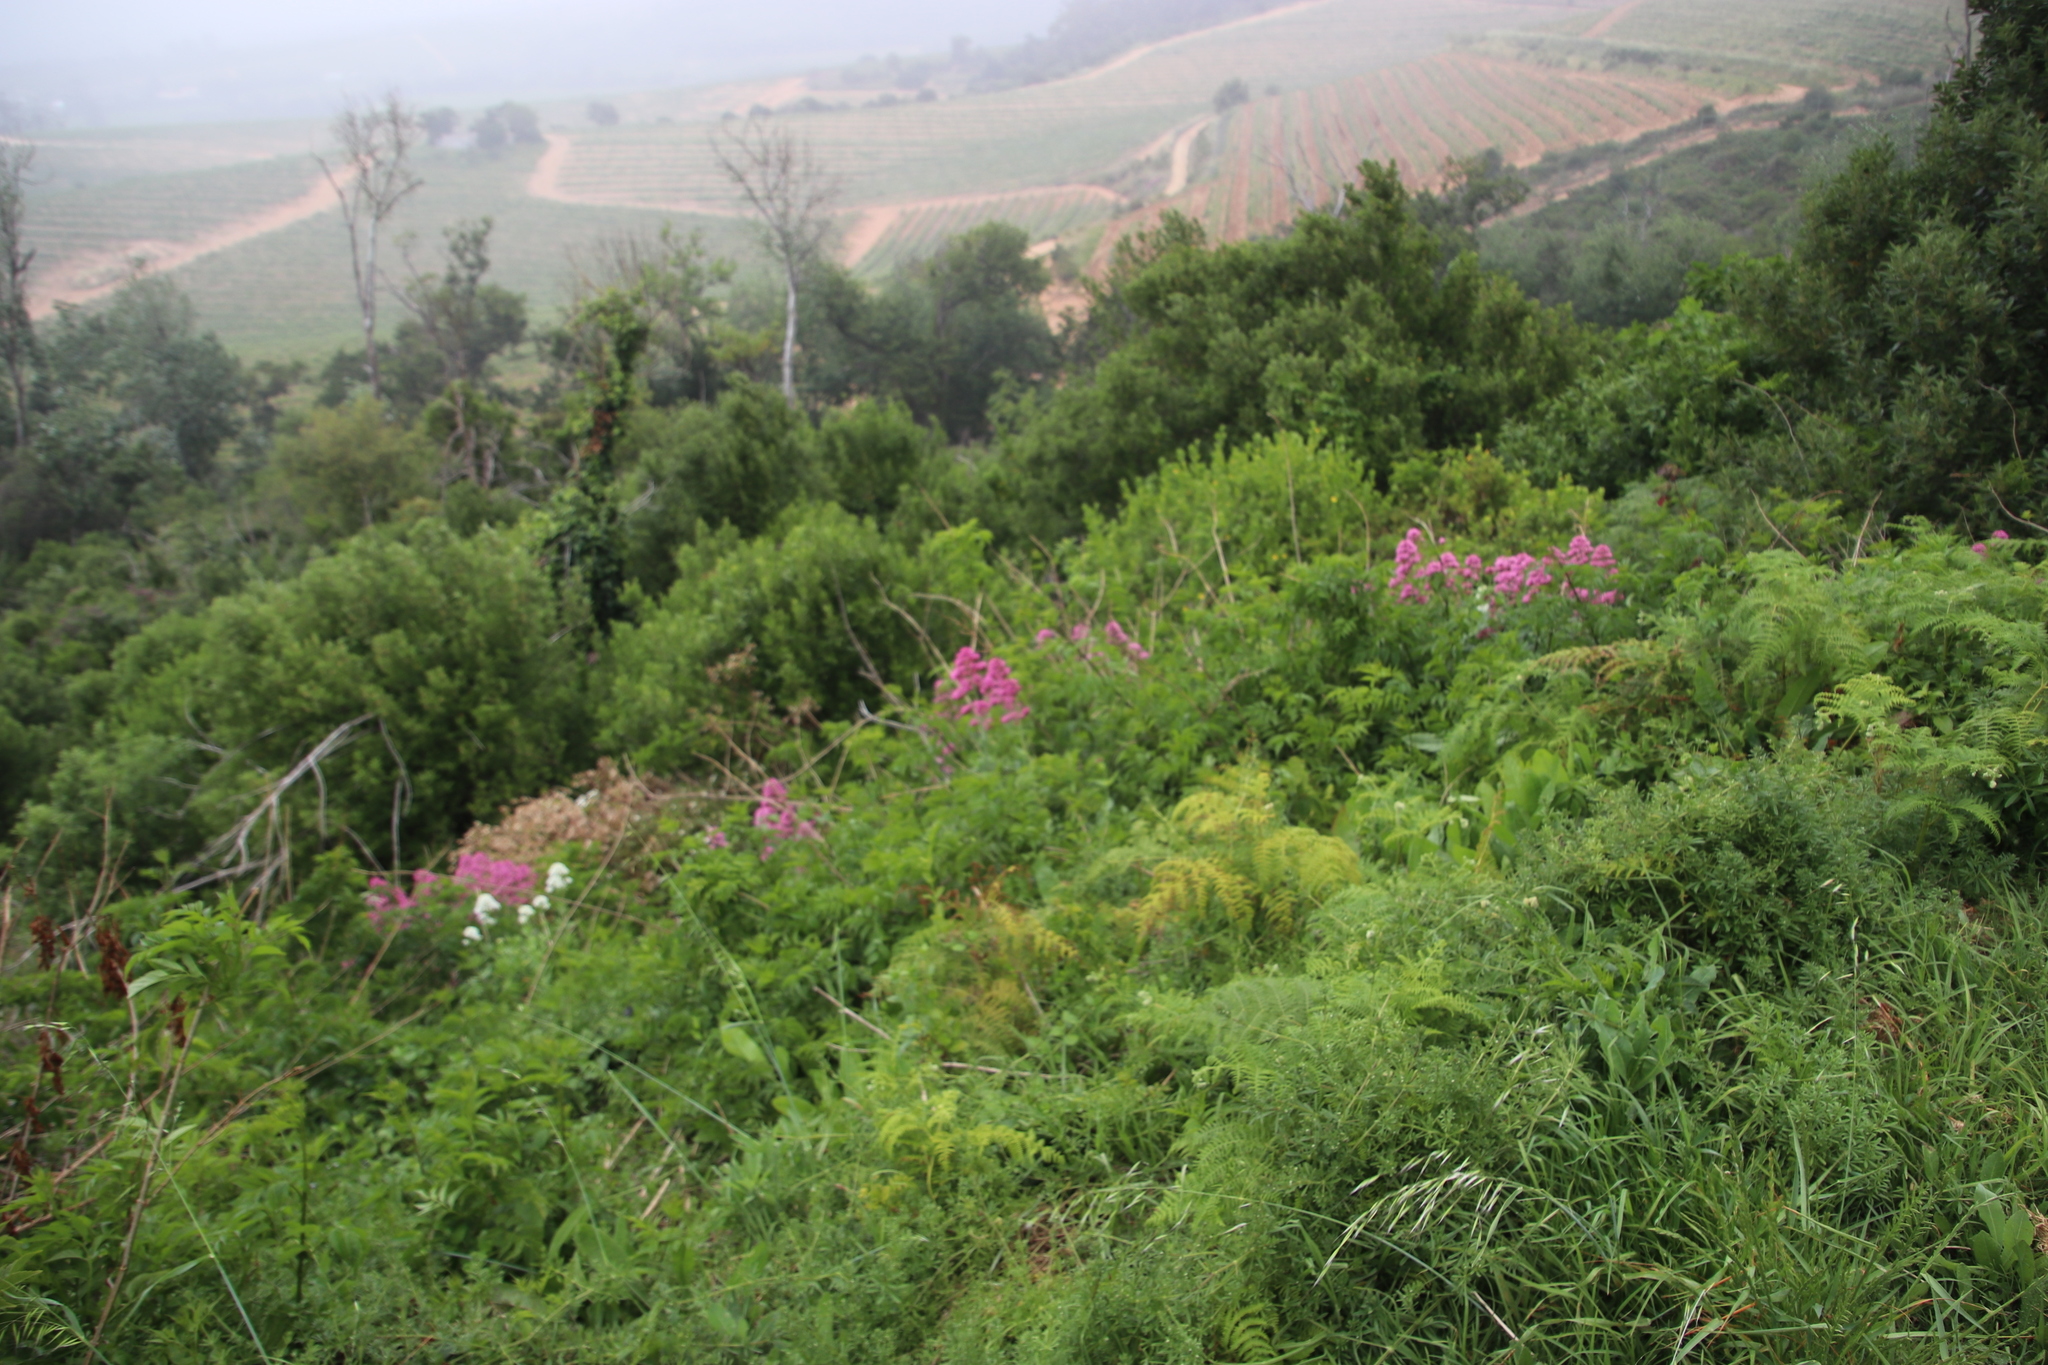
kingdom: Plantae
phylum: Tracheophyta
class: Magnoliopsida
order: Dipsacales
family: Caprifoliaceae
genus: Centranthus
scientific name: Centranthus ruber
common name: Red valerian
